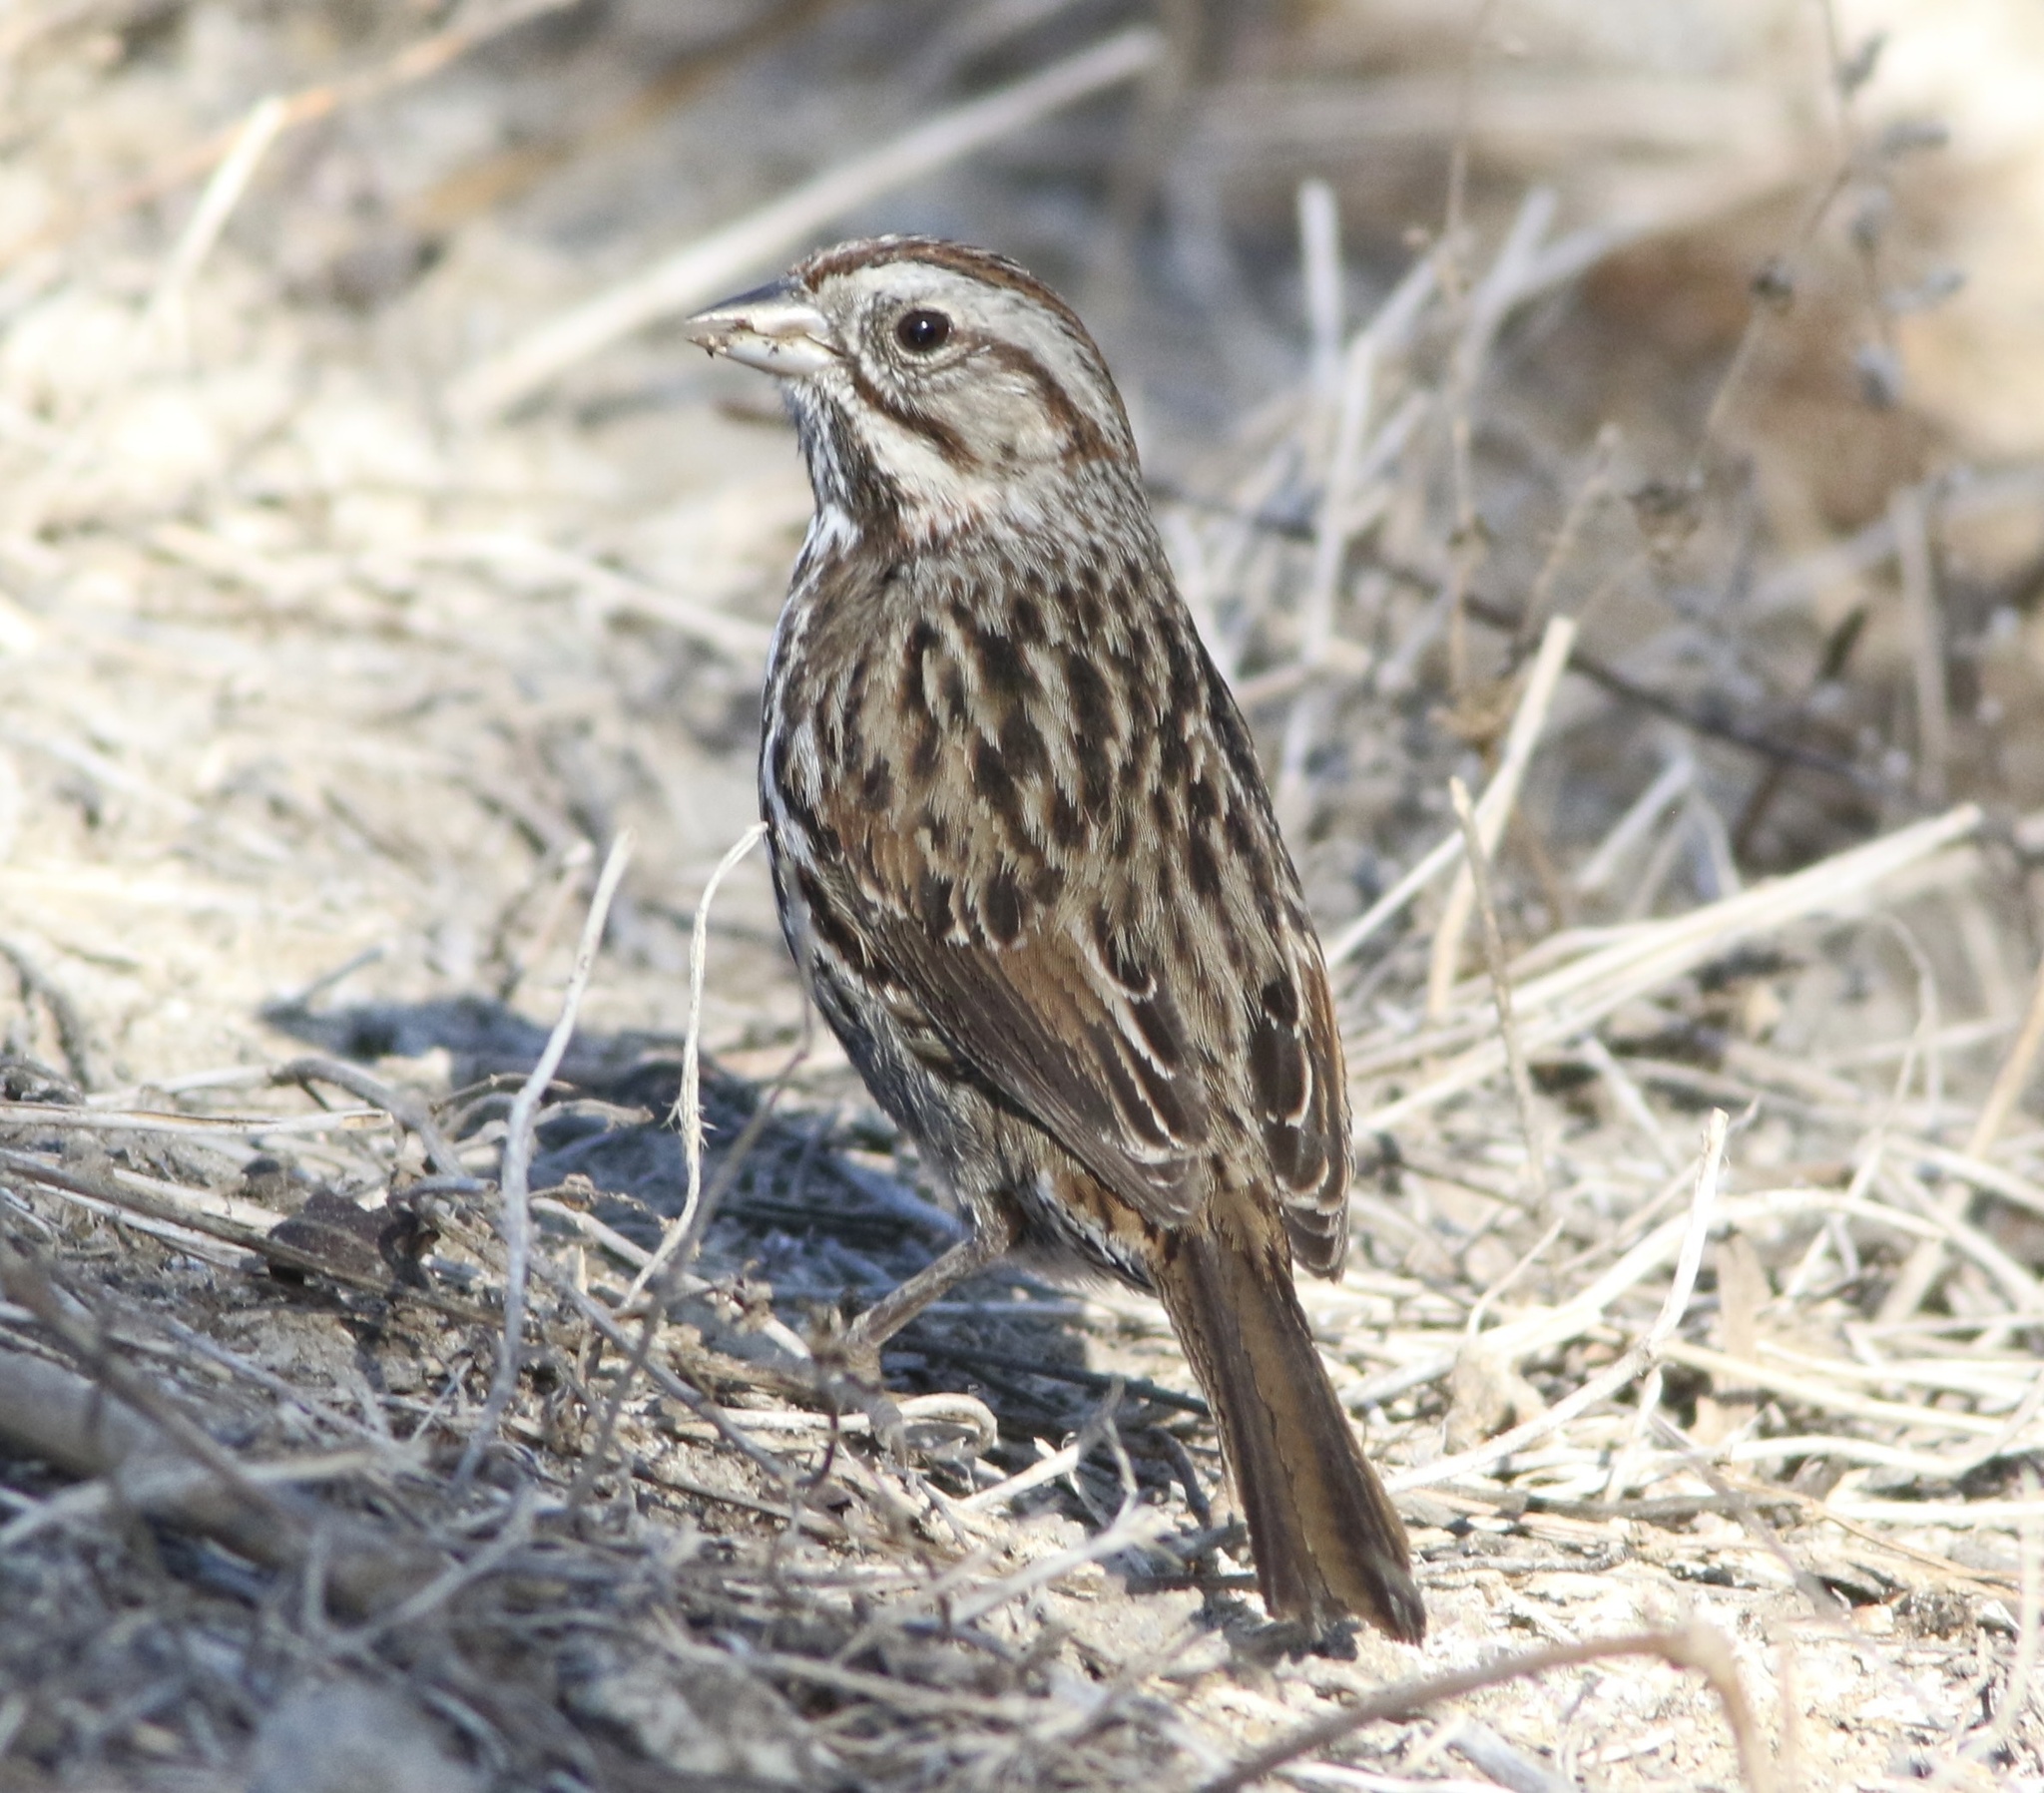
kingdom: Animalia
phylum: Chordata
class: Aves
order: Passeriformes
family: Passerellidae
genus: Melospiza
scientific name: Melospiza melodia
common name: Song sparrow
